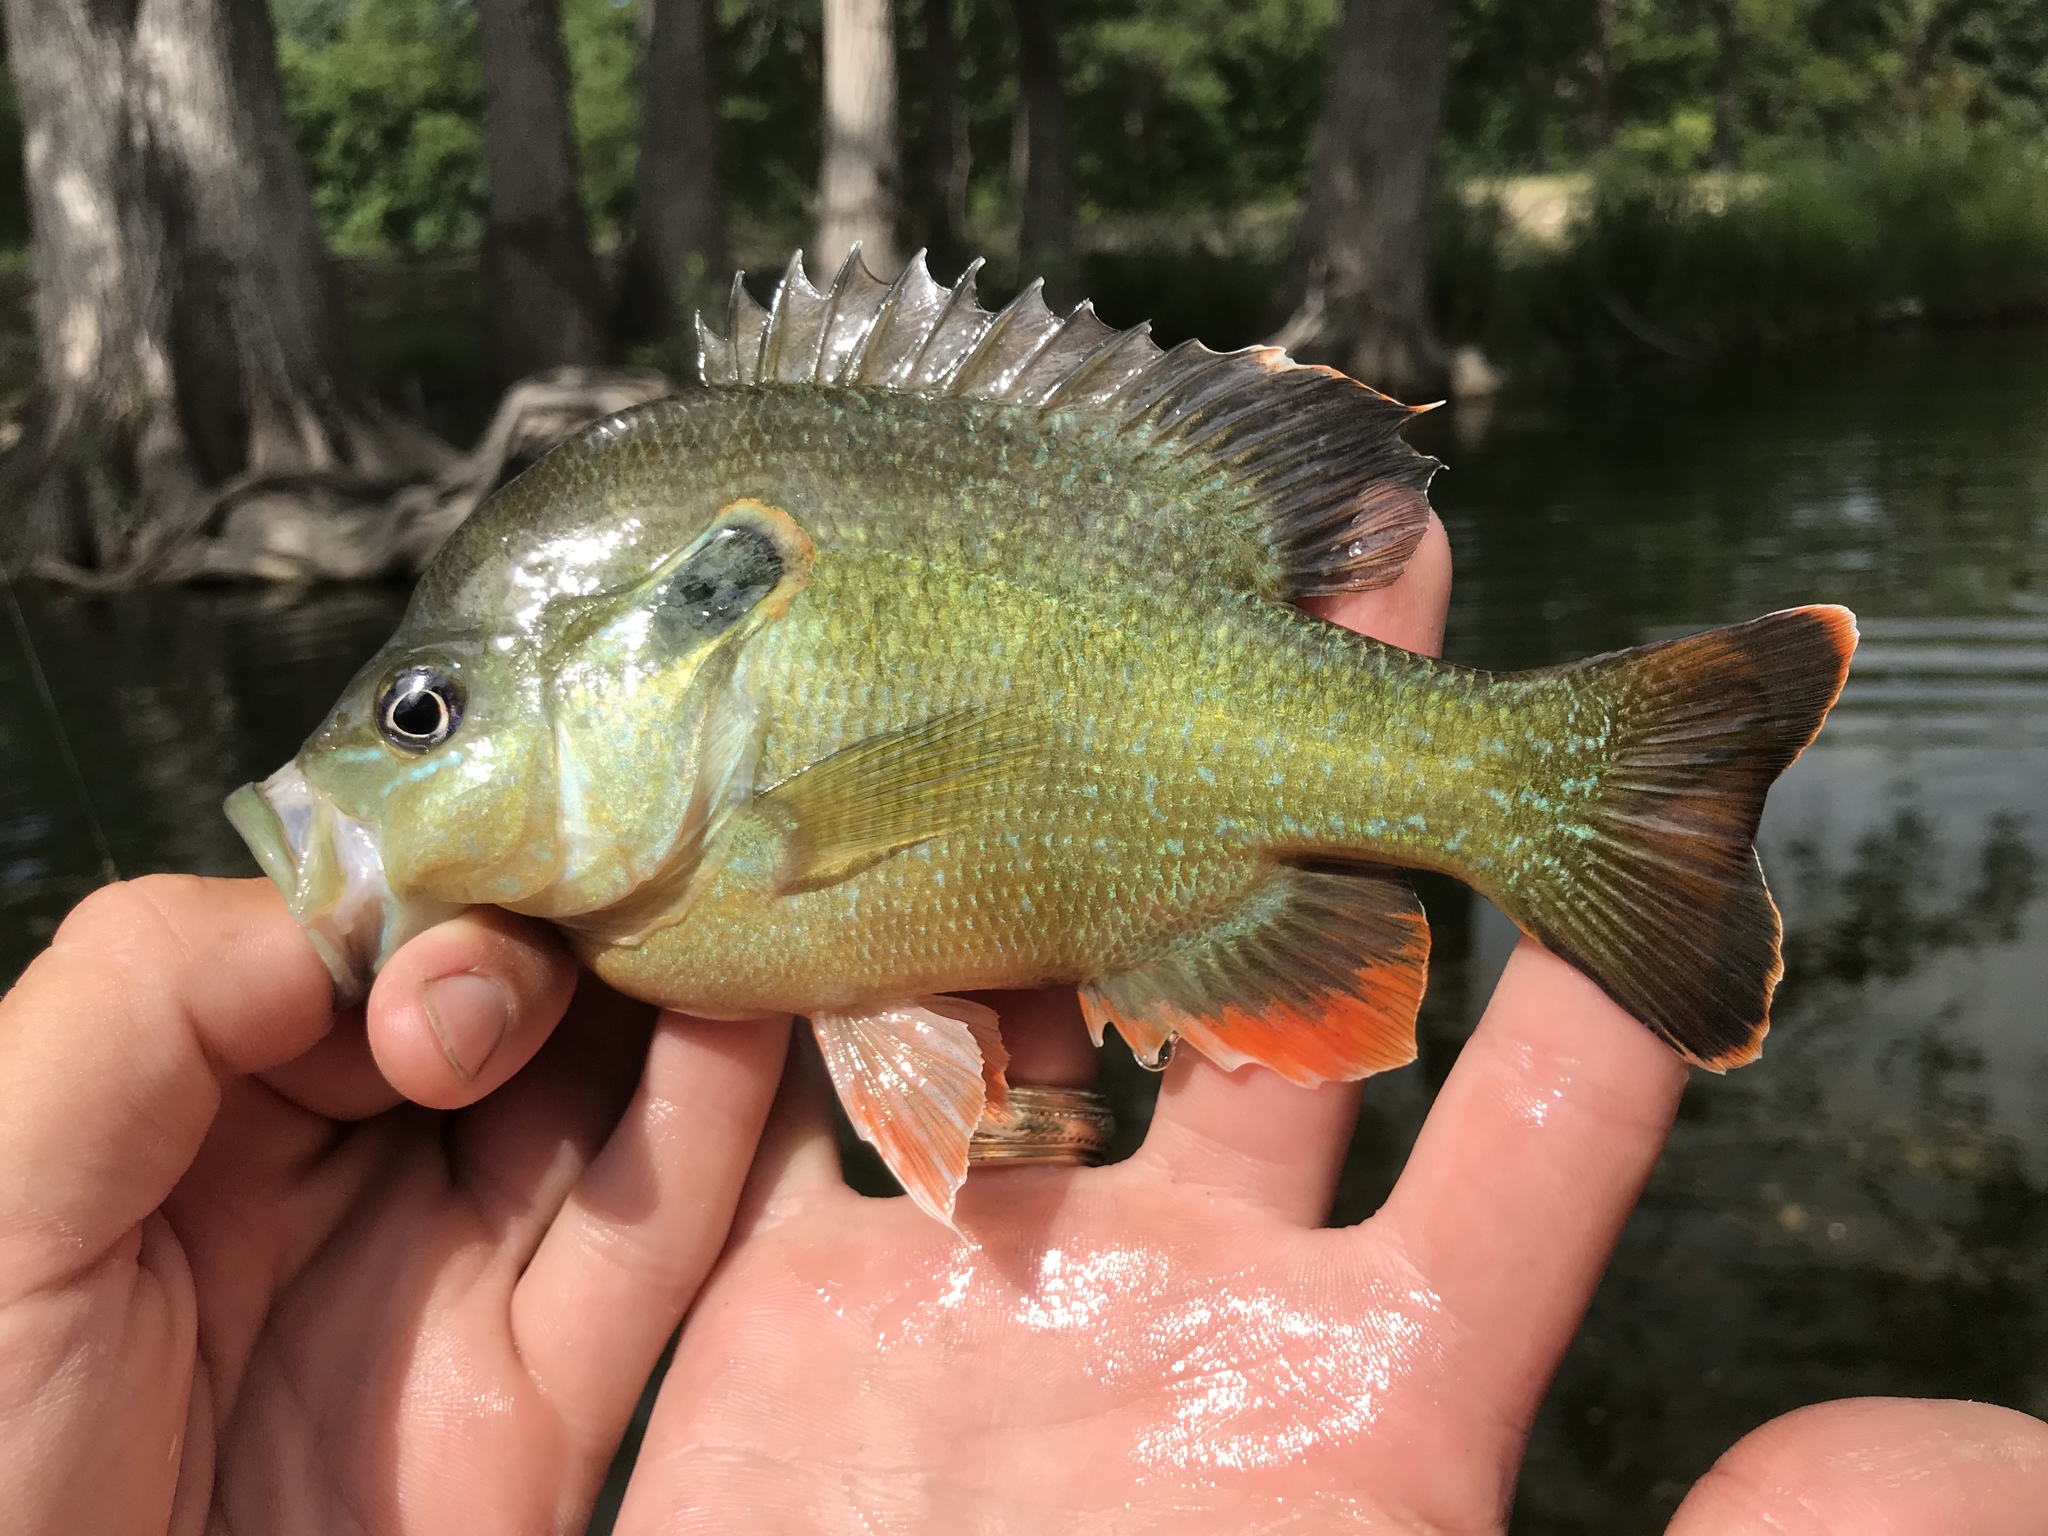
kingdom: Animalia
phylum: Chordata
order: Perciformes
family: Centrarchidae
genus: Lepomis
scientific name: Lepomis
